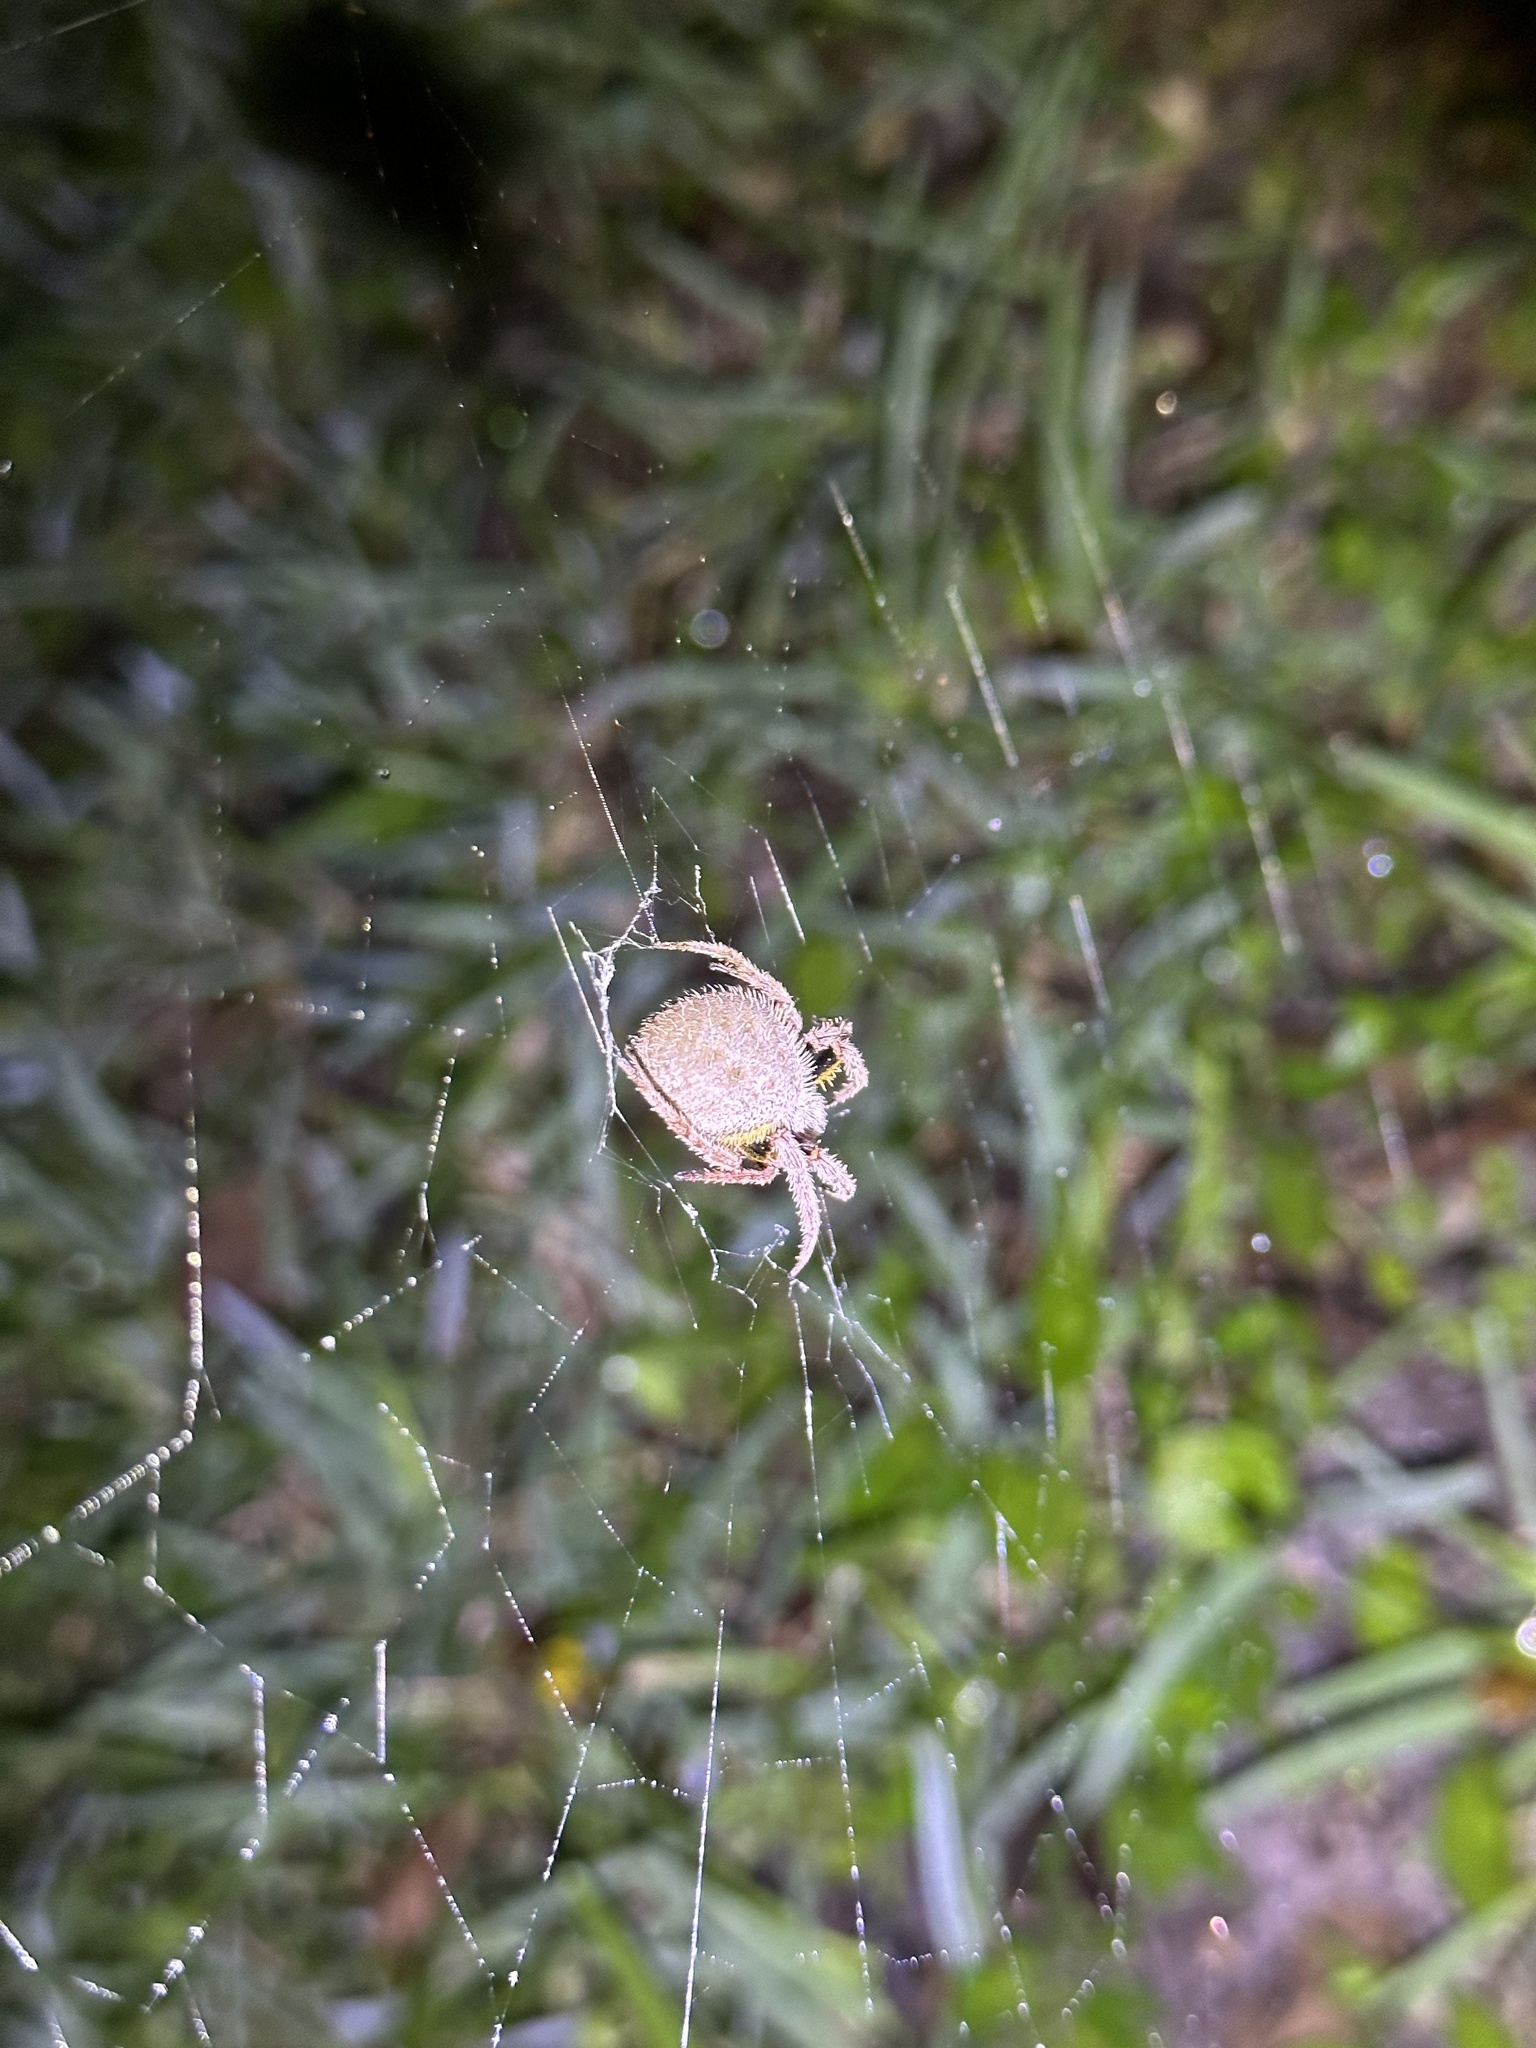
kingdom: Animalia
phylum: Arthropoda
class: Arachnida
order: Araneae
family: Araneidae
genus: Eriophora
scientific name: Eriophora ravilla
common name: Orb weavers
